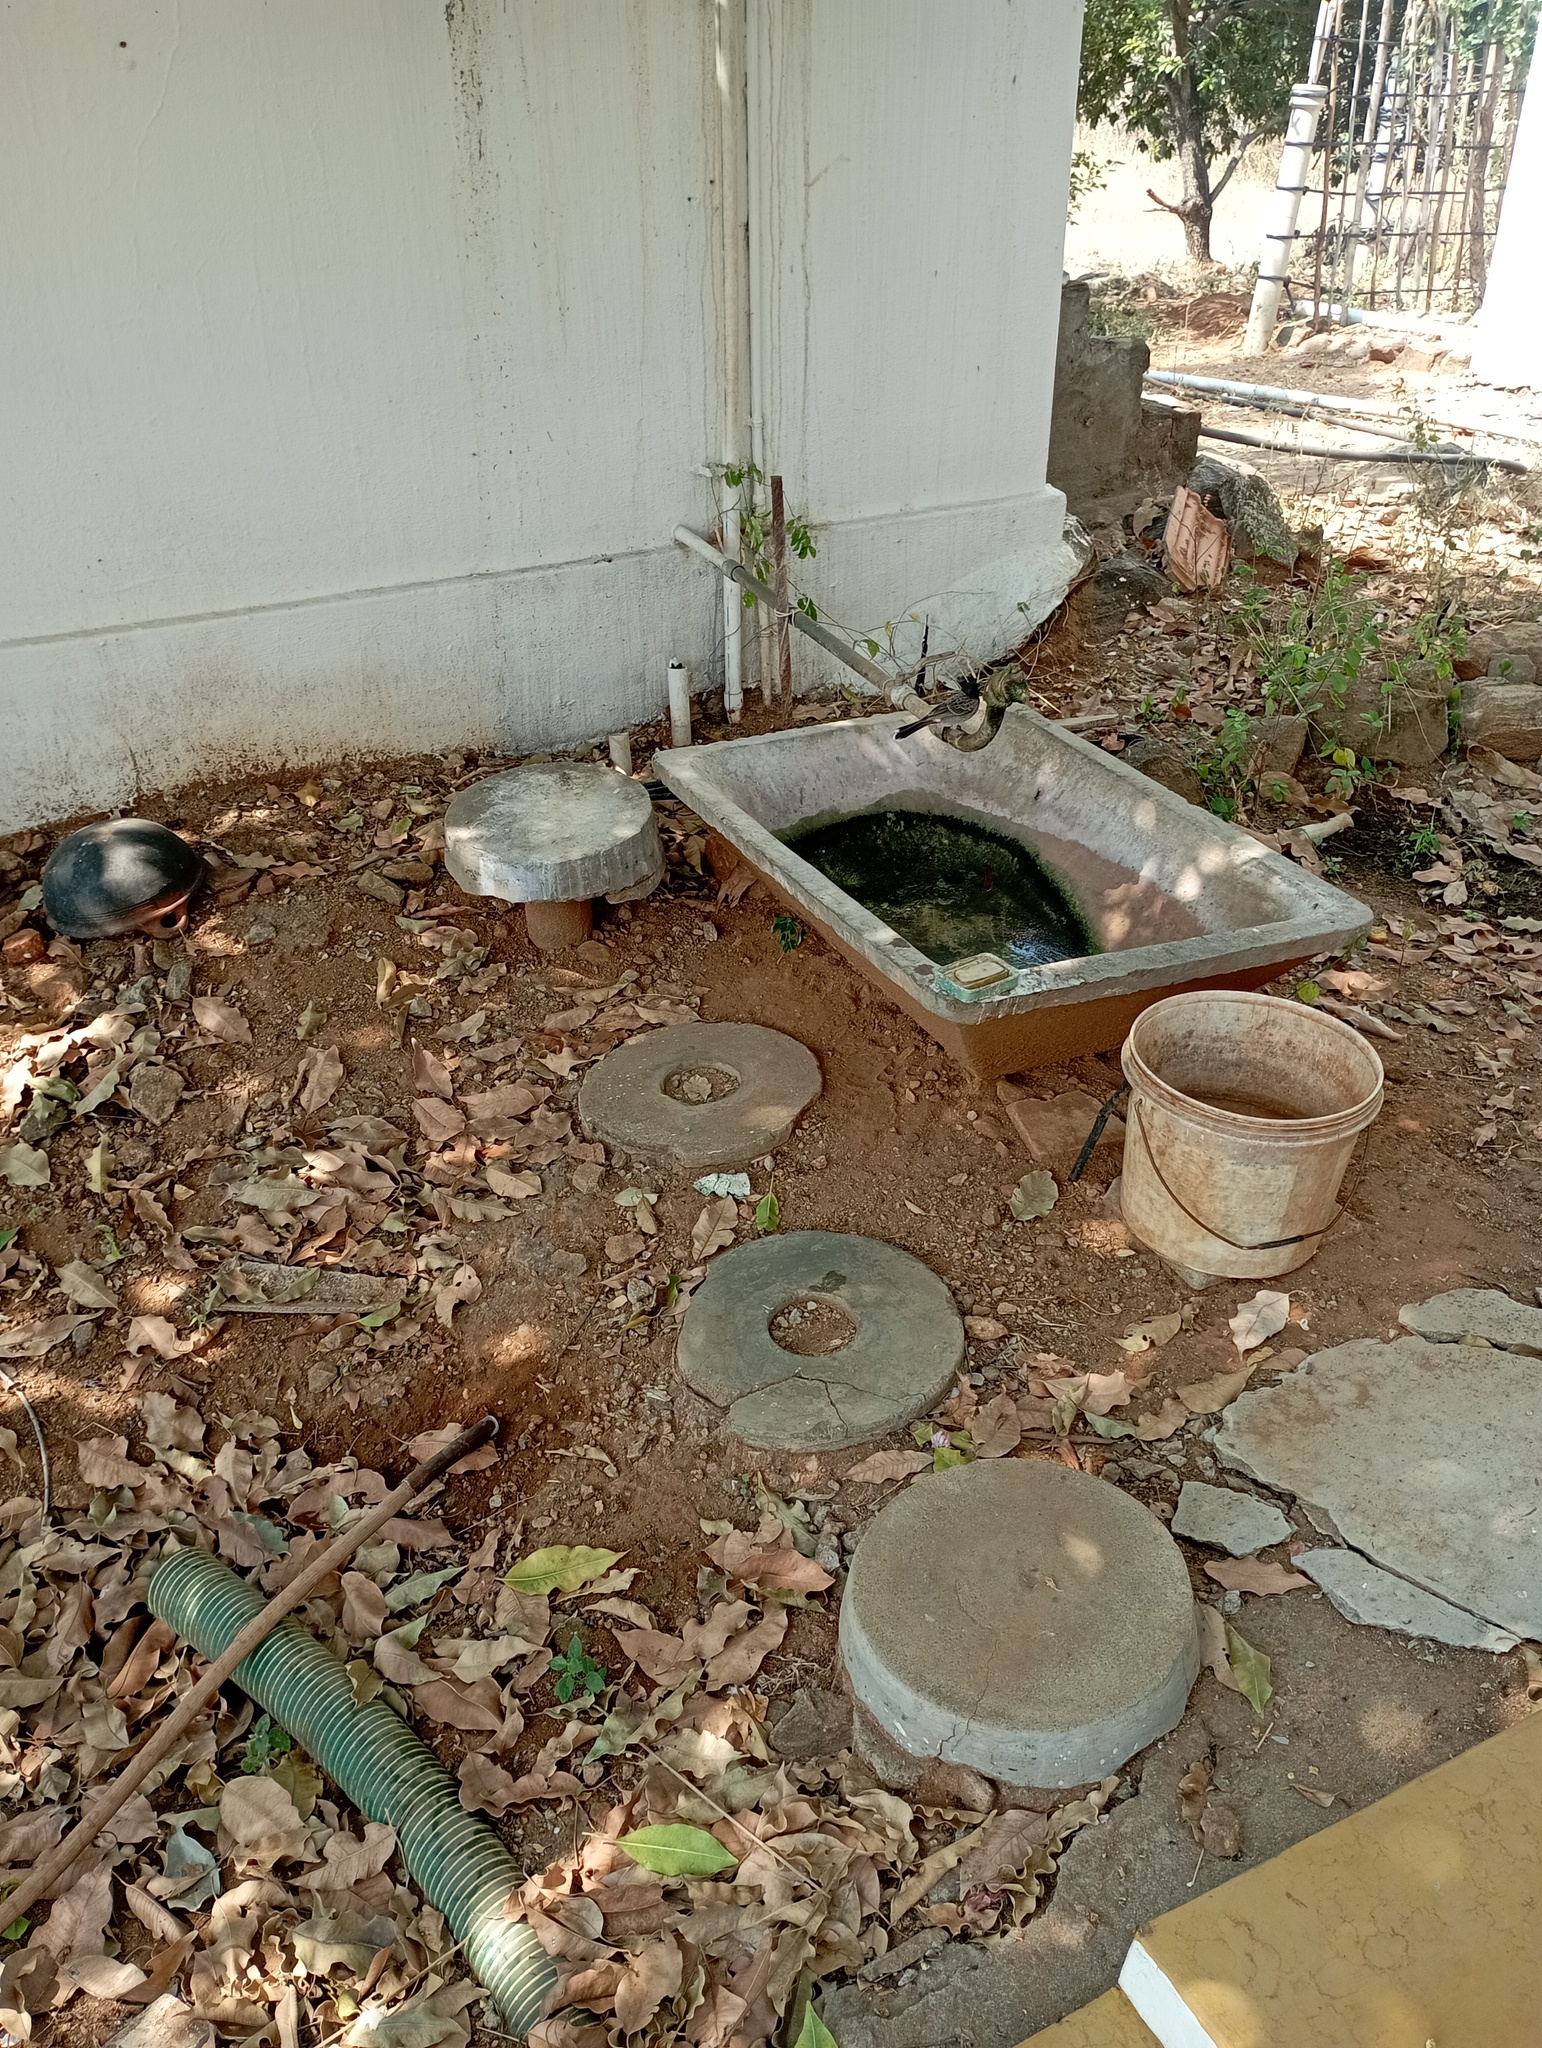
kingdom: Animalia
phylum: Chordata
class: Aves
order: Passeriformes
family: Pycnonotidae
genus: Pycnonotus
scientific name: Pycnonotus cafer
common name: Red-vented bulbul
